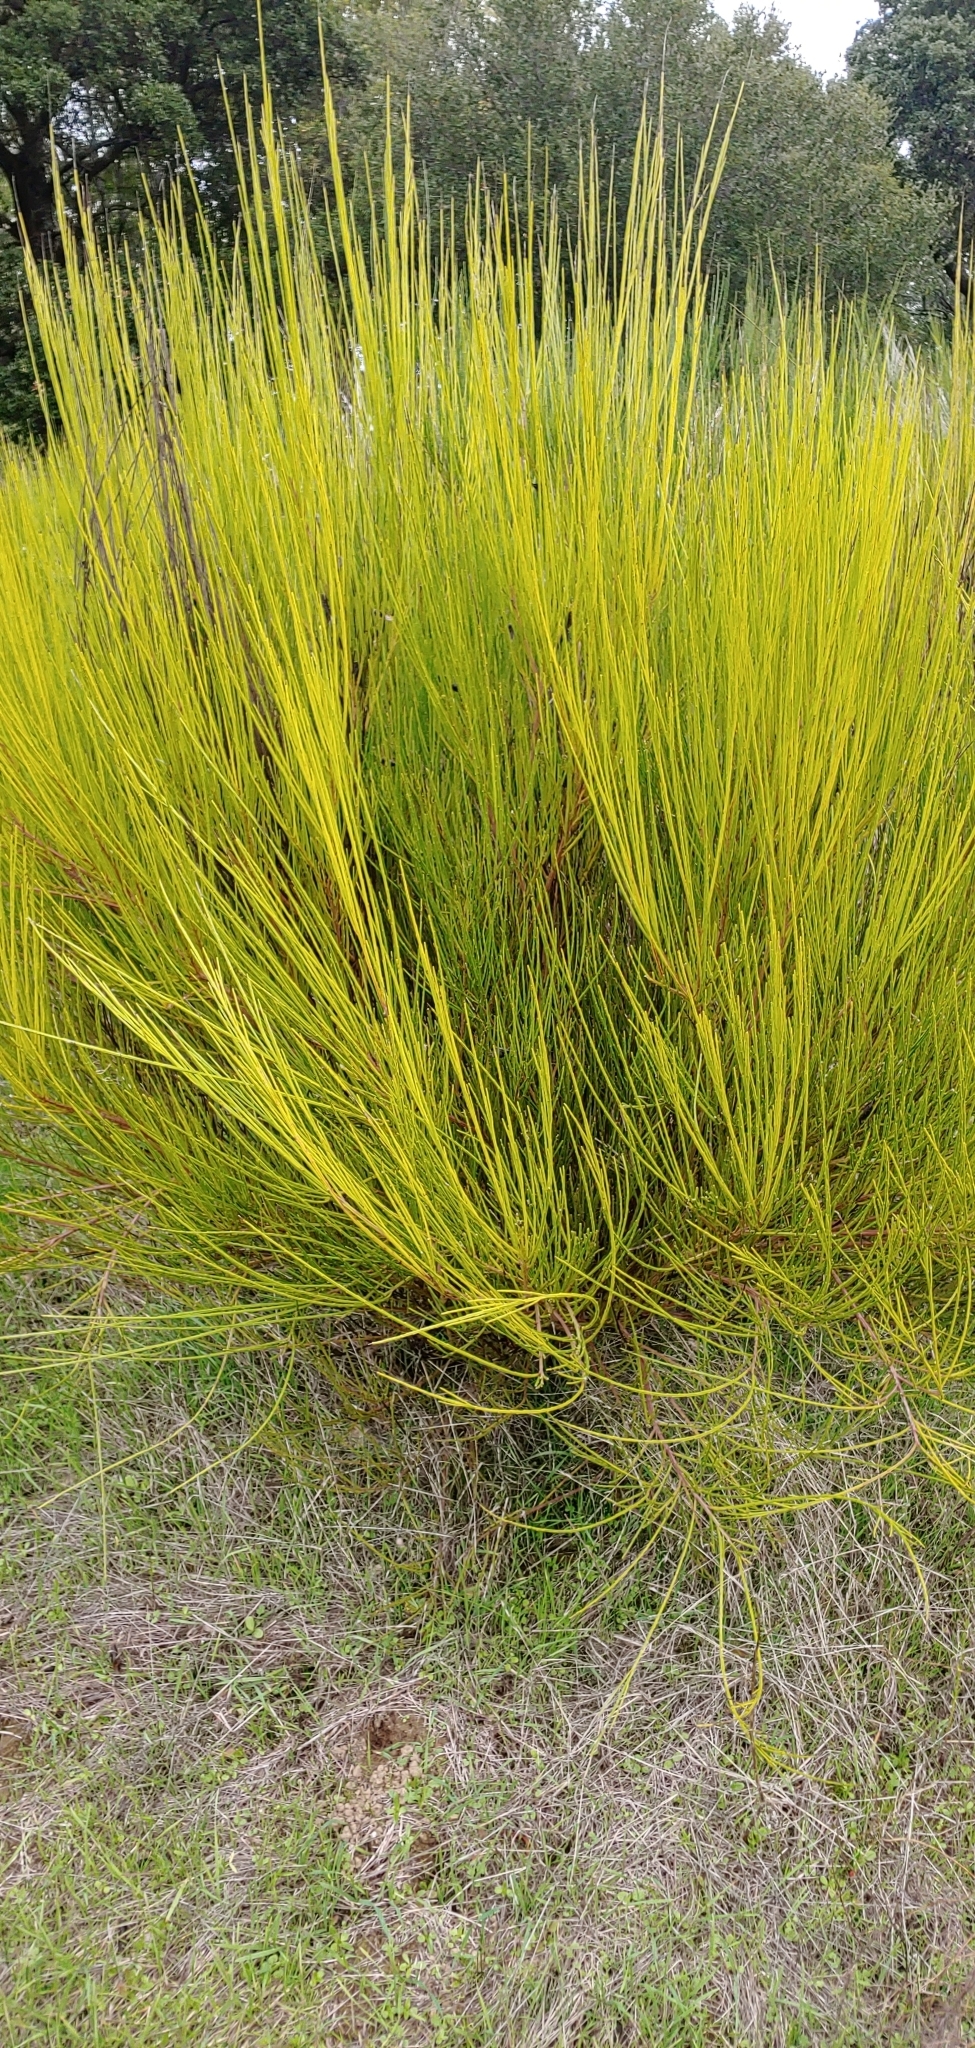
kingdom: Plantae
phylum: Tracheophyta
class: Magnoliopsida
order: Fabales
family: Fabaceae
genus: Cytisus
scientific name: Cytisus scoparius
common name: Scotch broom
